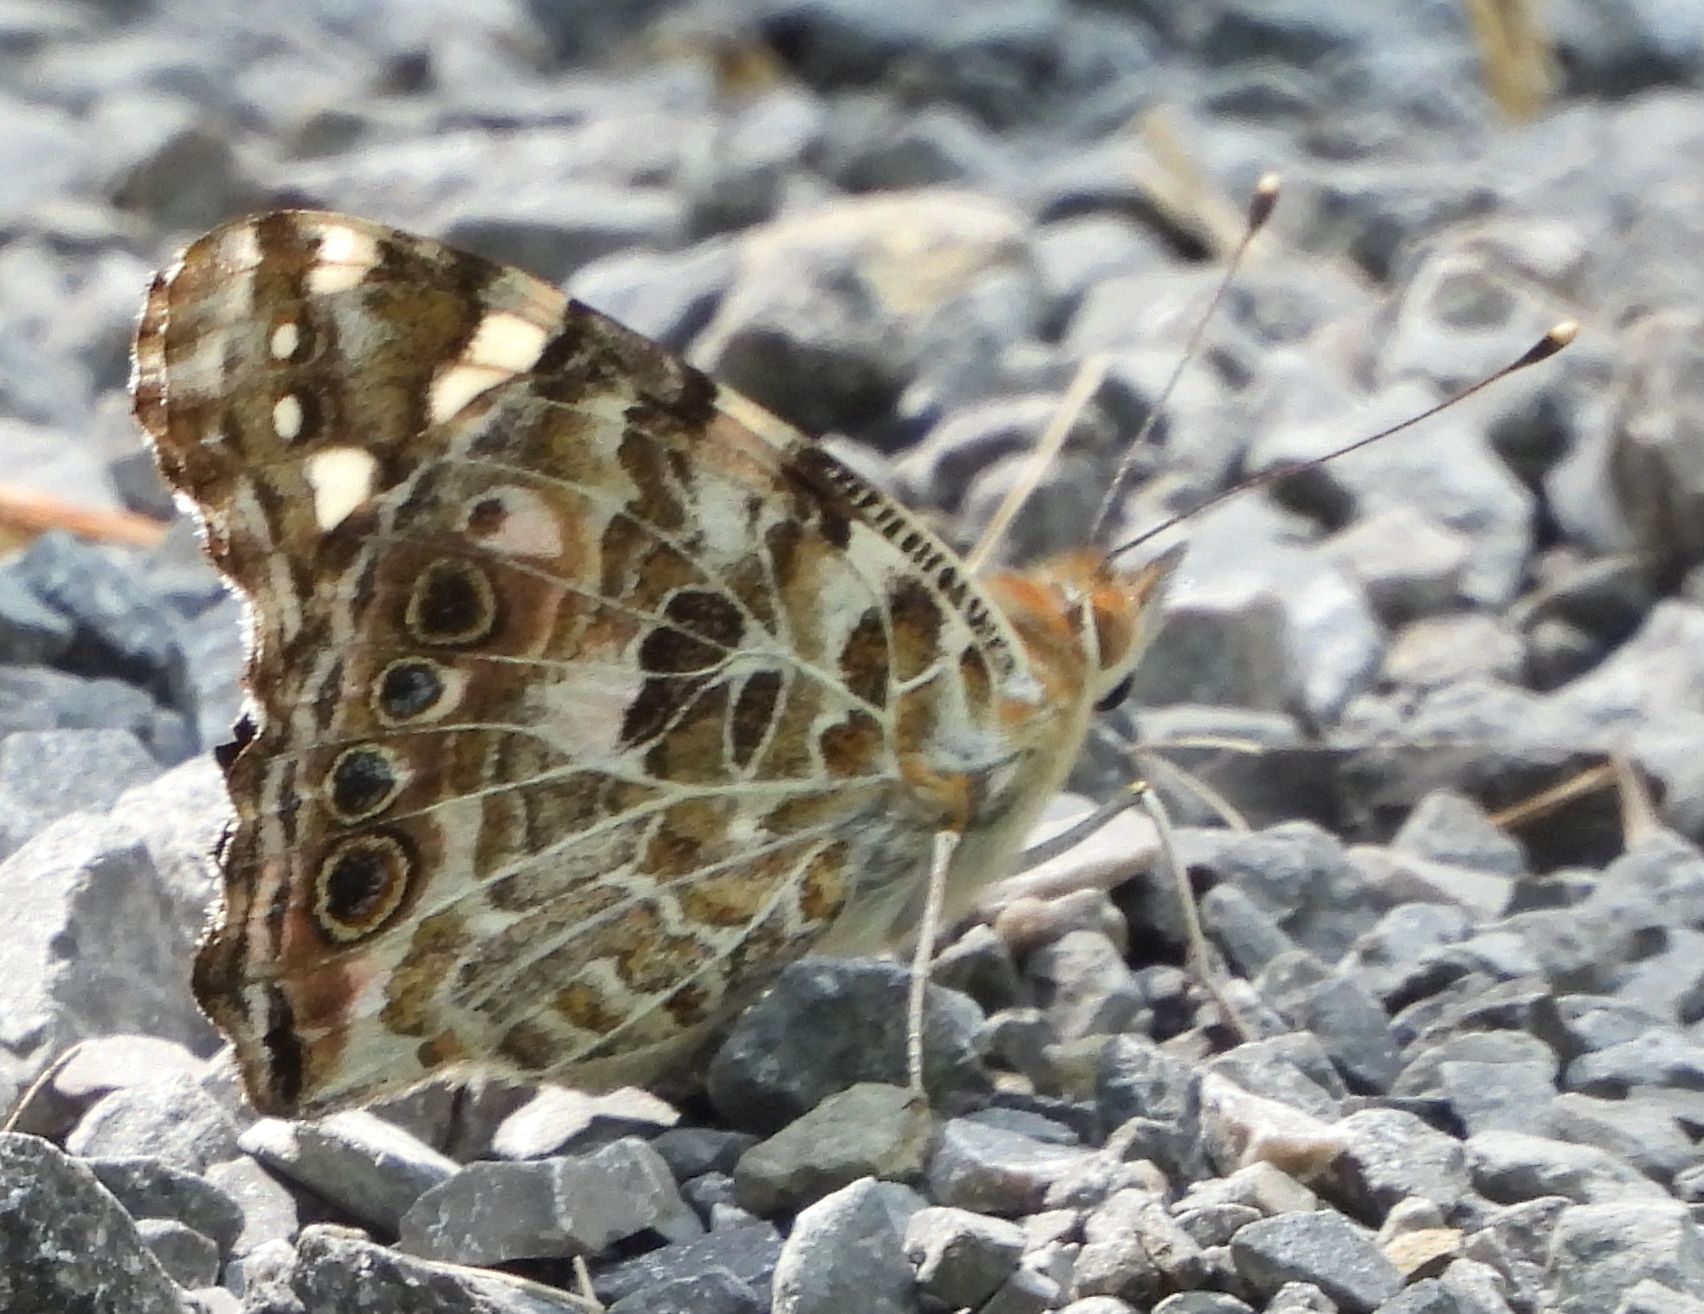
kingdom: Animalia
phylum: Arthropoda
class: Insecta
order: Lepidoptera
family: Nymphalidae
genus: Vanessa
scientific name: Vanessa cardui
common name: Painted lady
